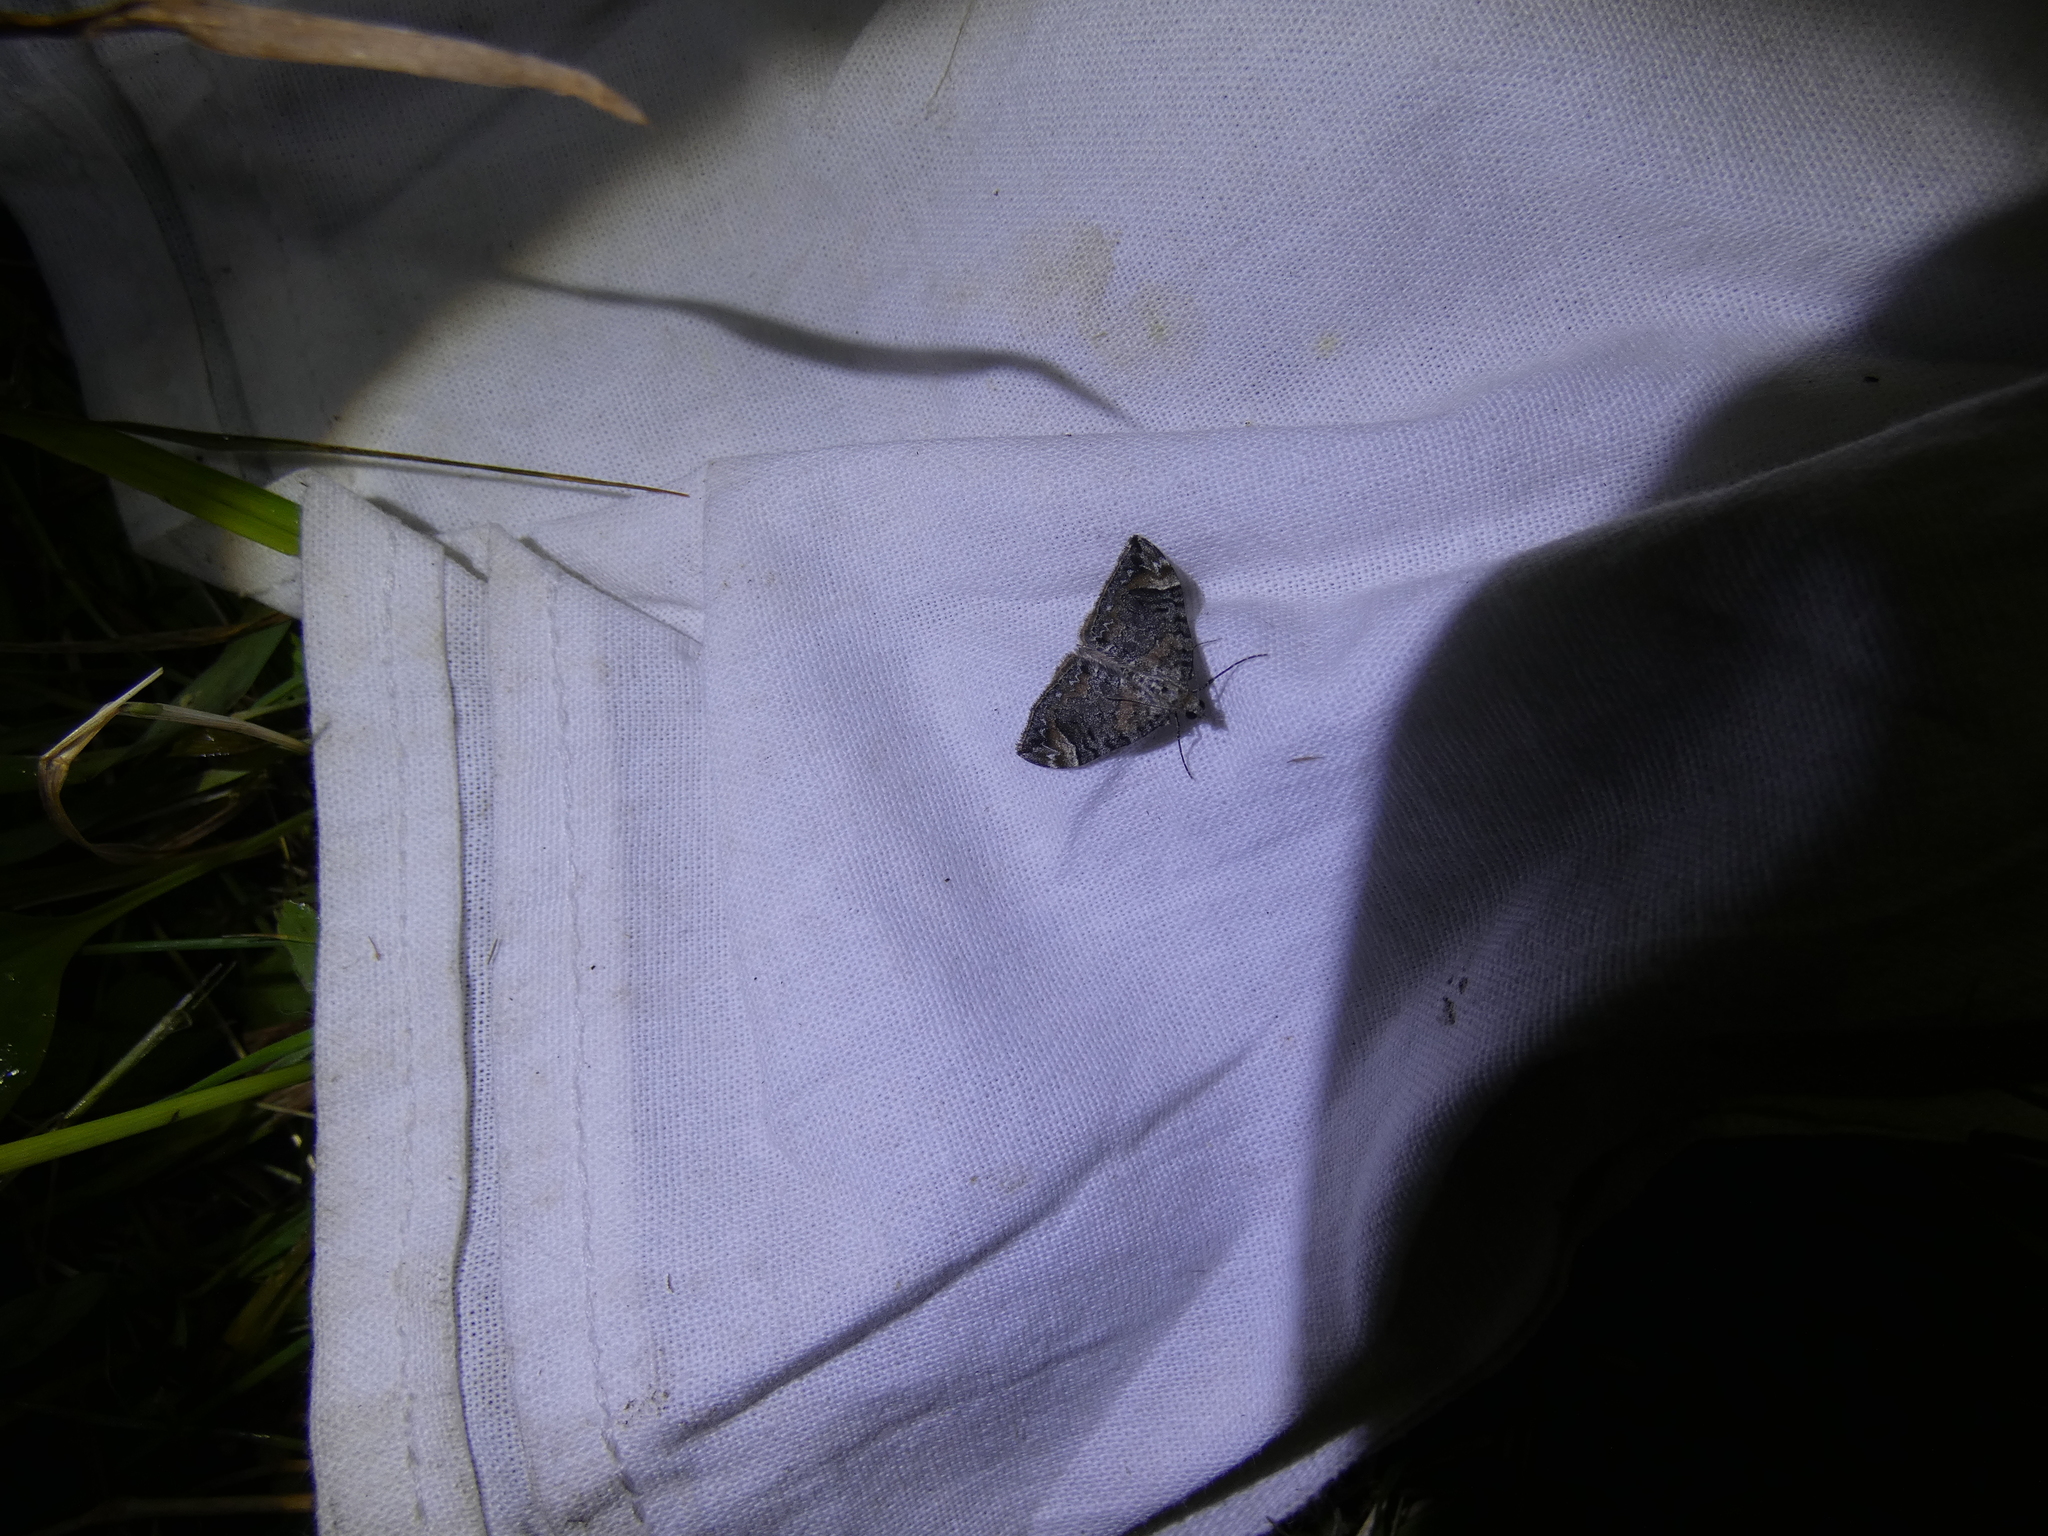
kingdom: Animalia
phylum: Arthropoda
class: Insecta
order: Lepidoptera
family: Geometridae
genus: Dysstroma
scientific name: Dysstroma citrata
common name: Dark marbled carpet
